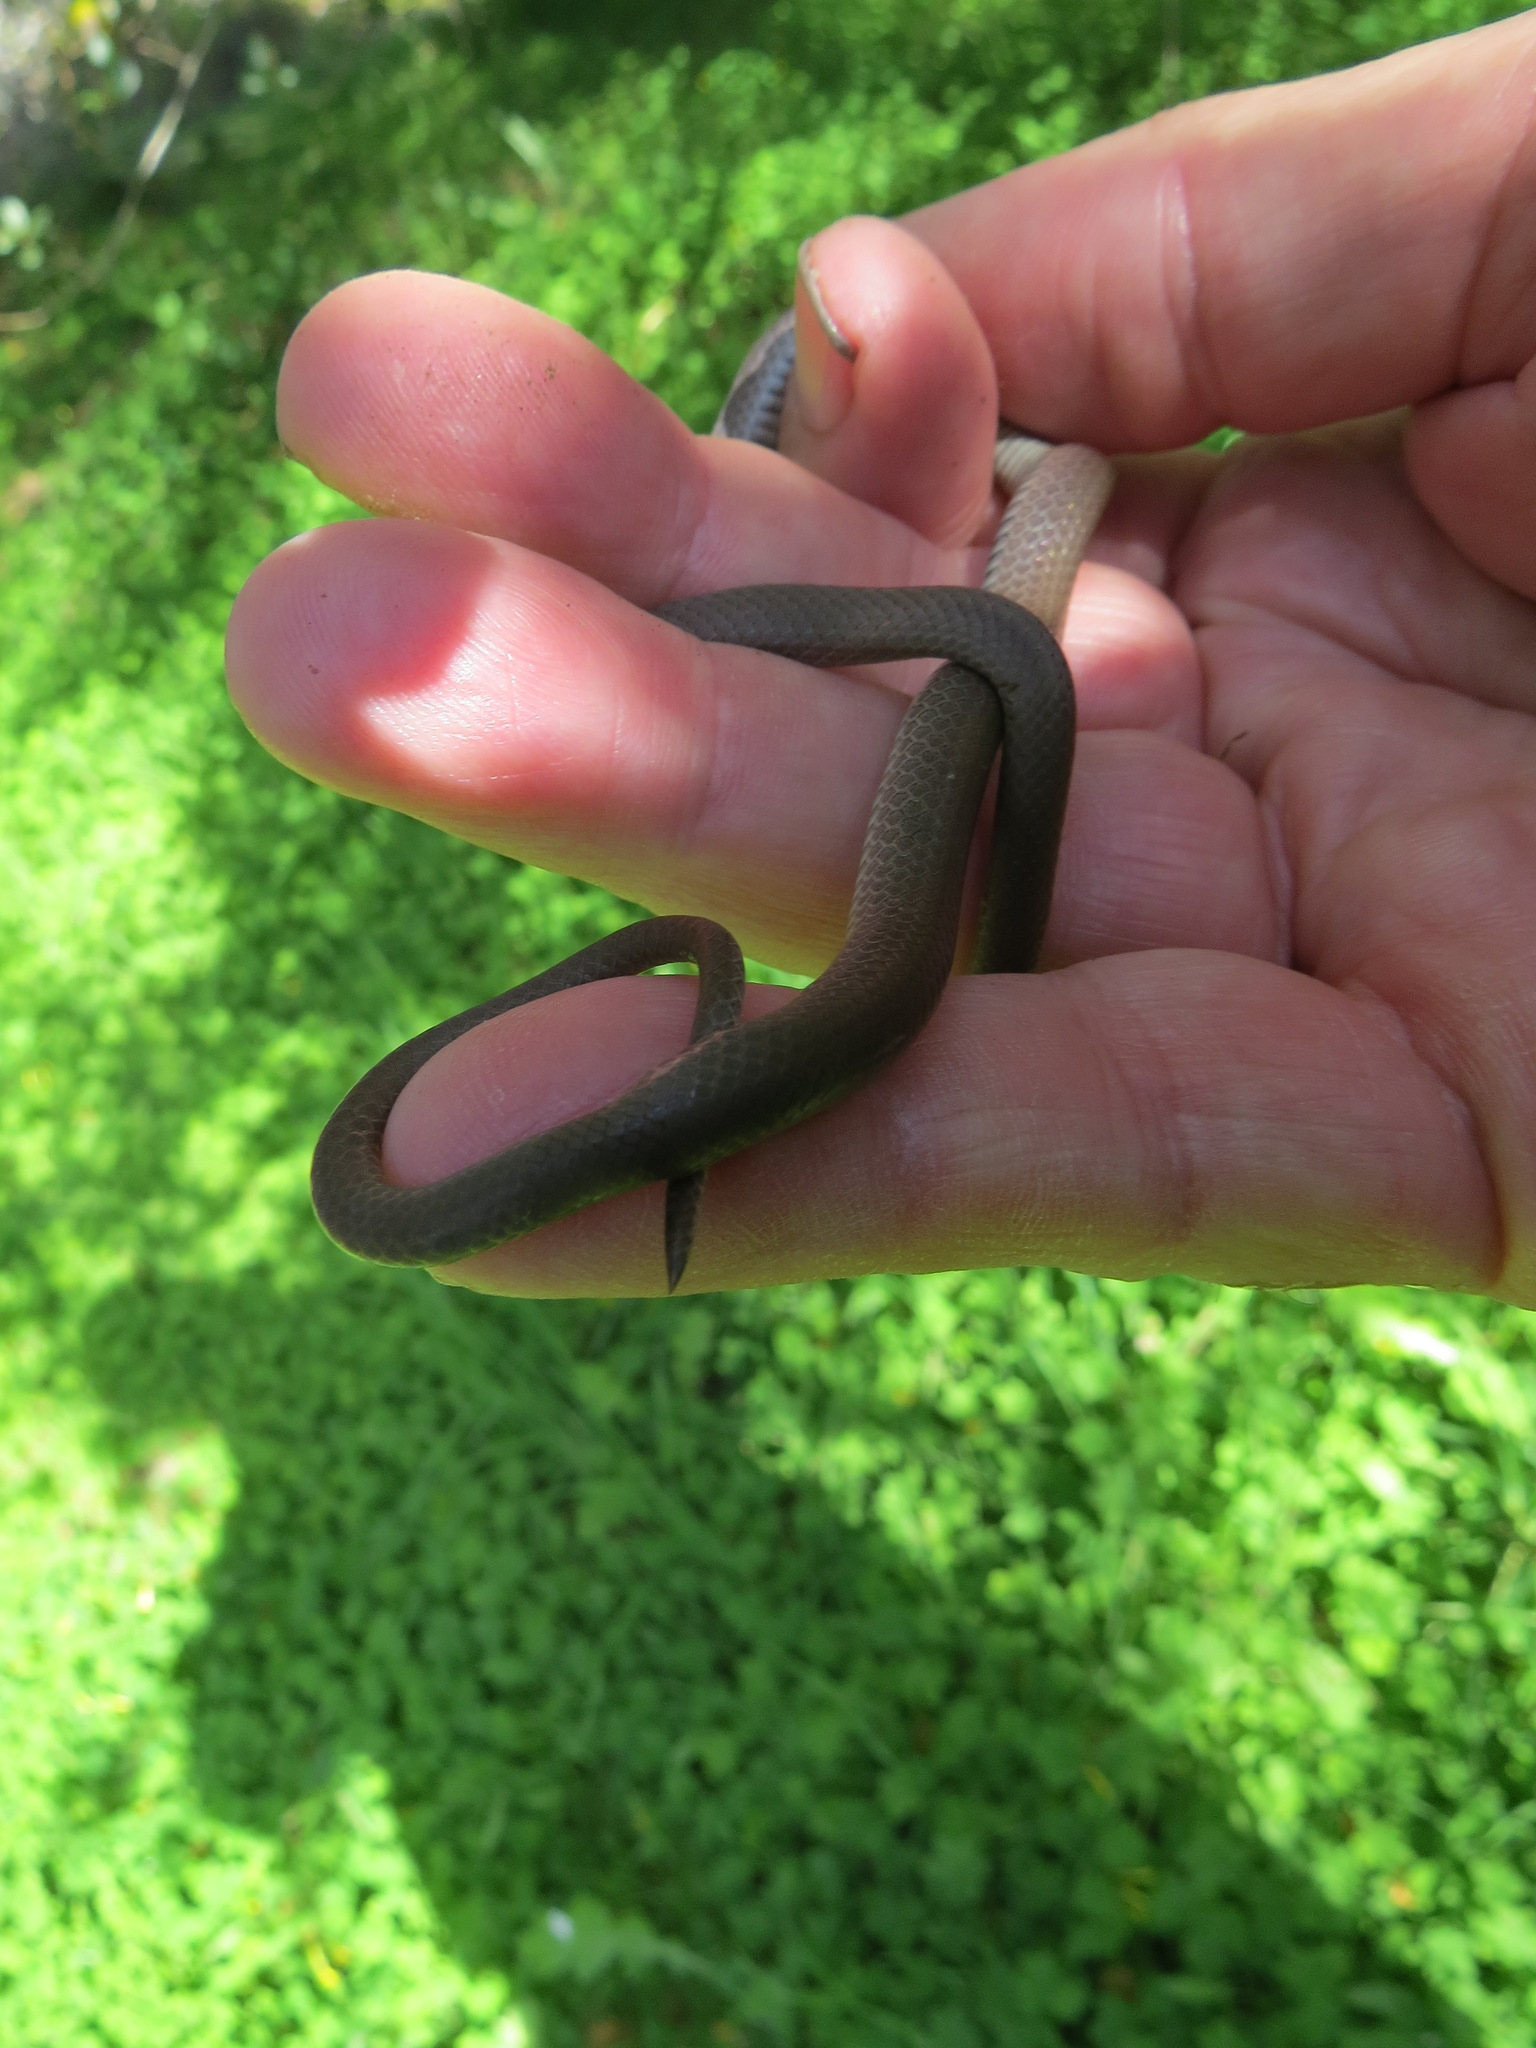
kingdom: Animalia
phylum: Chordata
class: Squamata
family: Colubridae
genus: Contia
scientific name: Contia longicaudae
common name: Forest sharp-tailed snake
